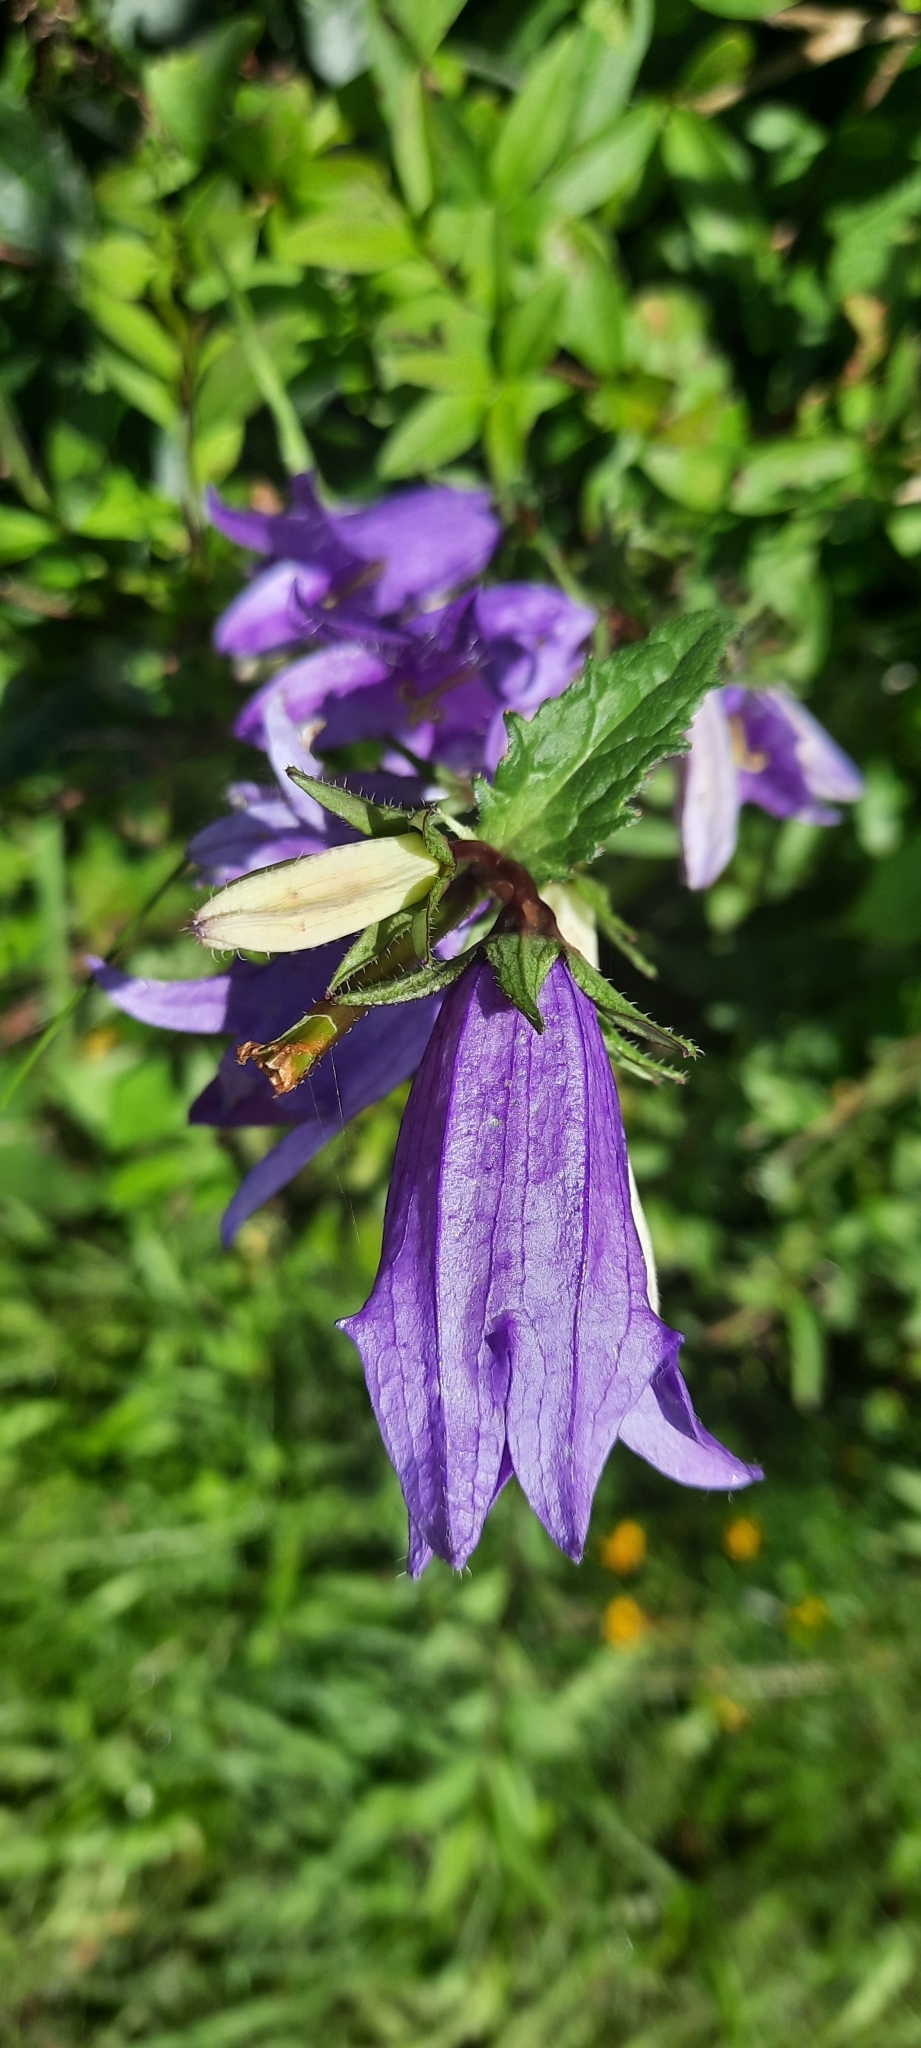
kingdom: Plantae
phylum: Tracheophyta
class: Magnoliopsida
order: Asterales
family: Campanulaceae
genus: Campanula
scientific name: Campanula trachelium
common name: Nettle-leaved bellflower
